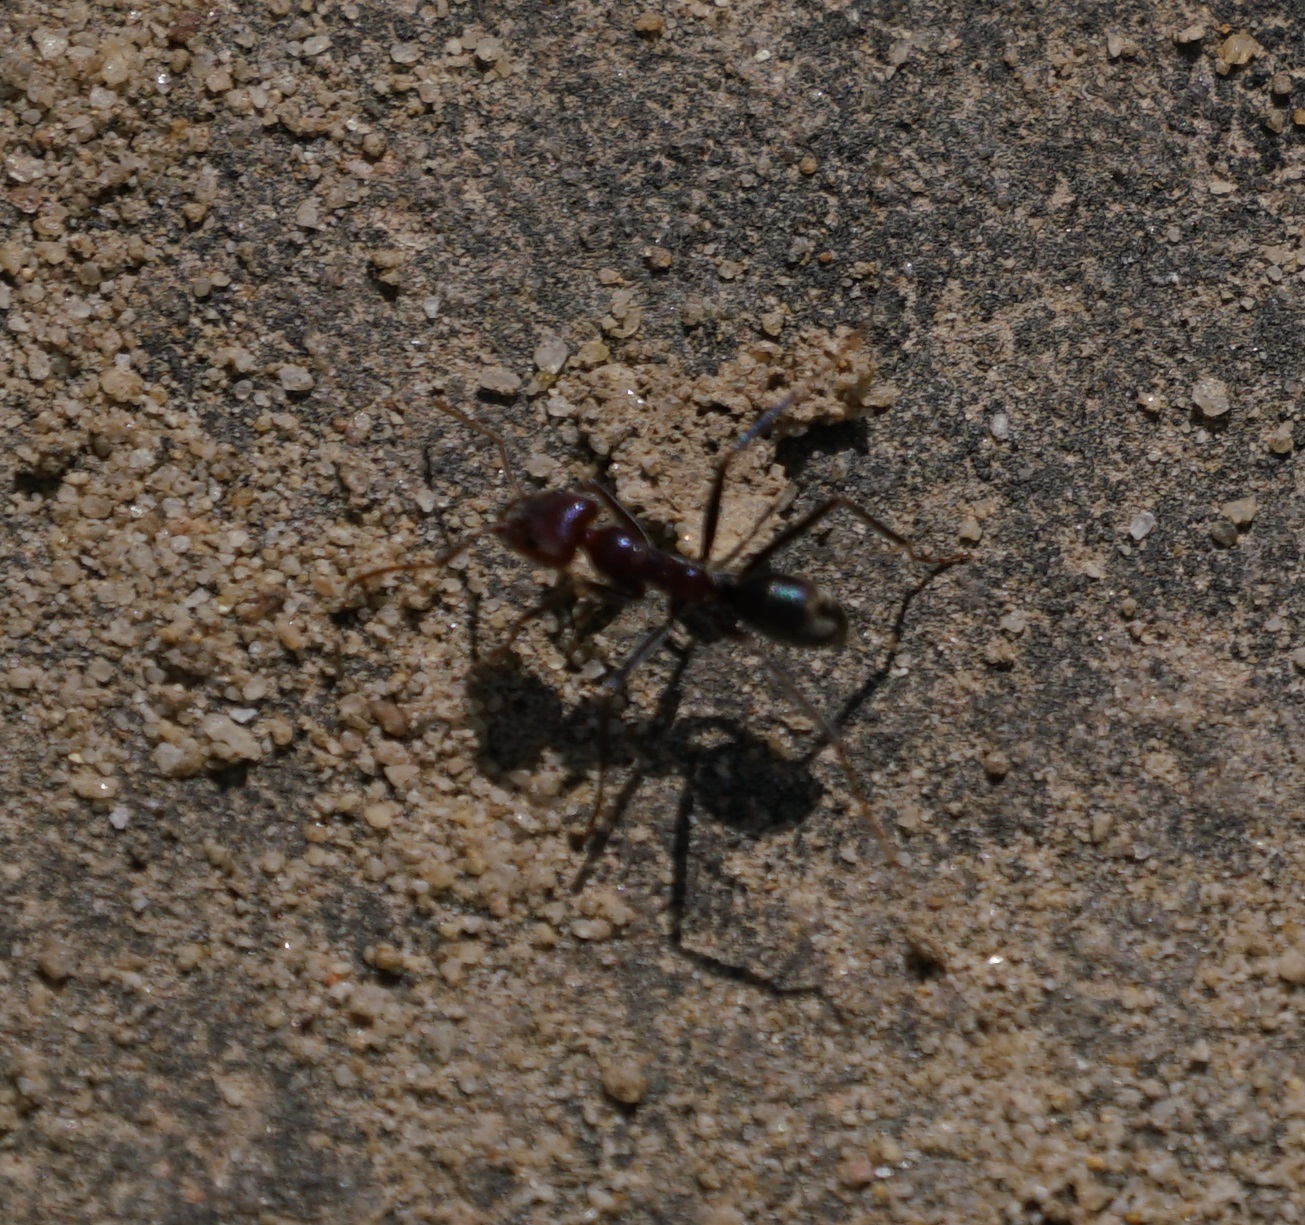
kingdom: Animalia
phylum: Arthropoda
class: Insecta
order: Hymenoptera
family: Formicidae
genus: Iridomyrmex
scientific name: Iridomyrmex purpureus
